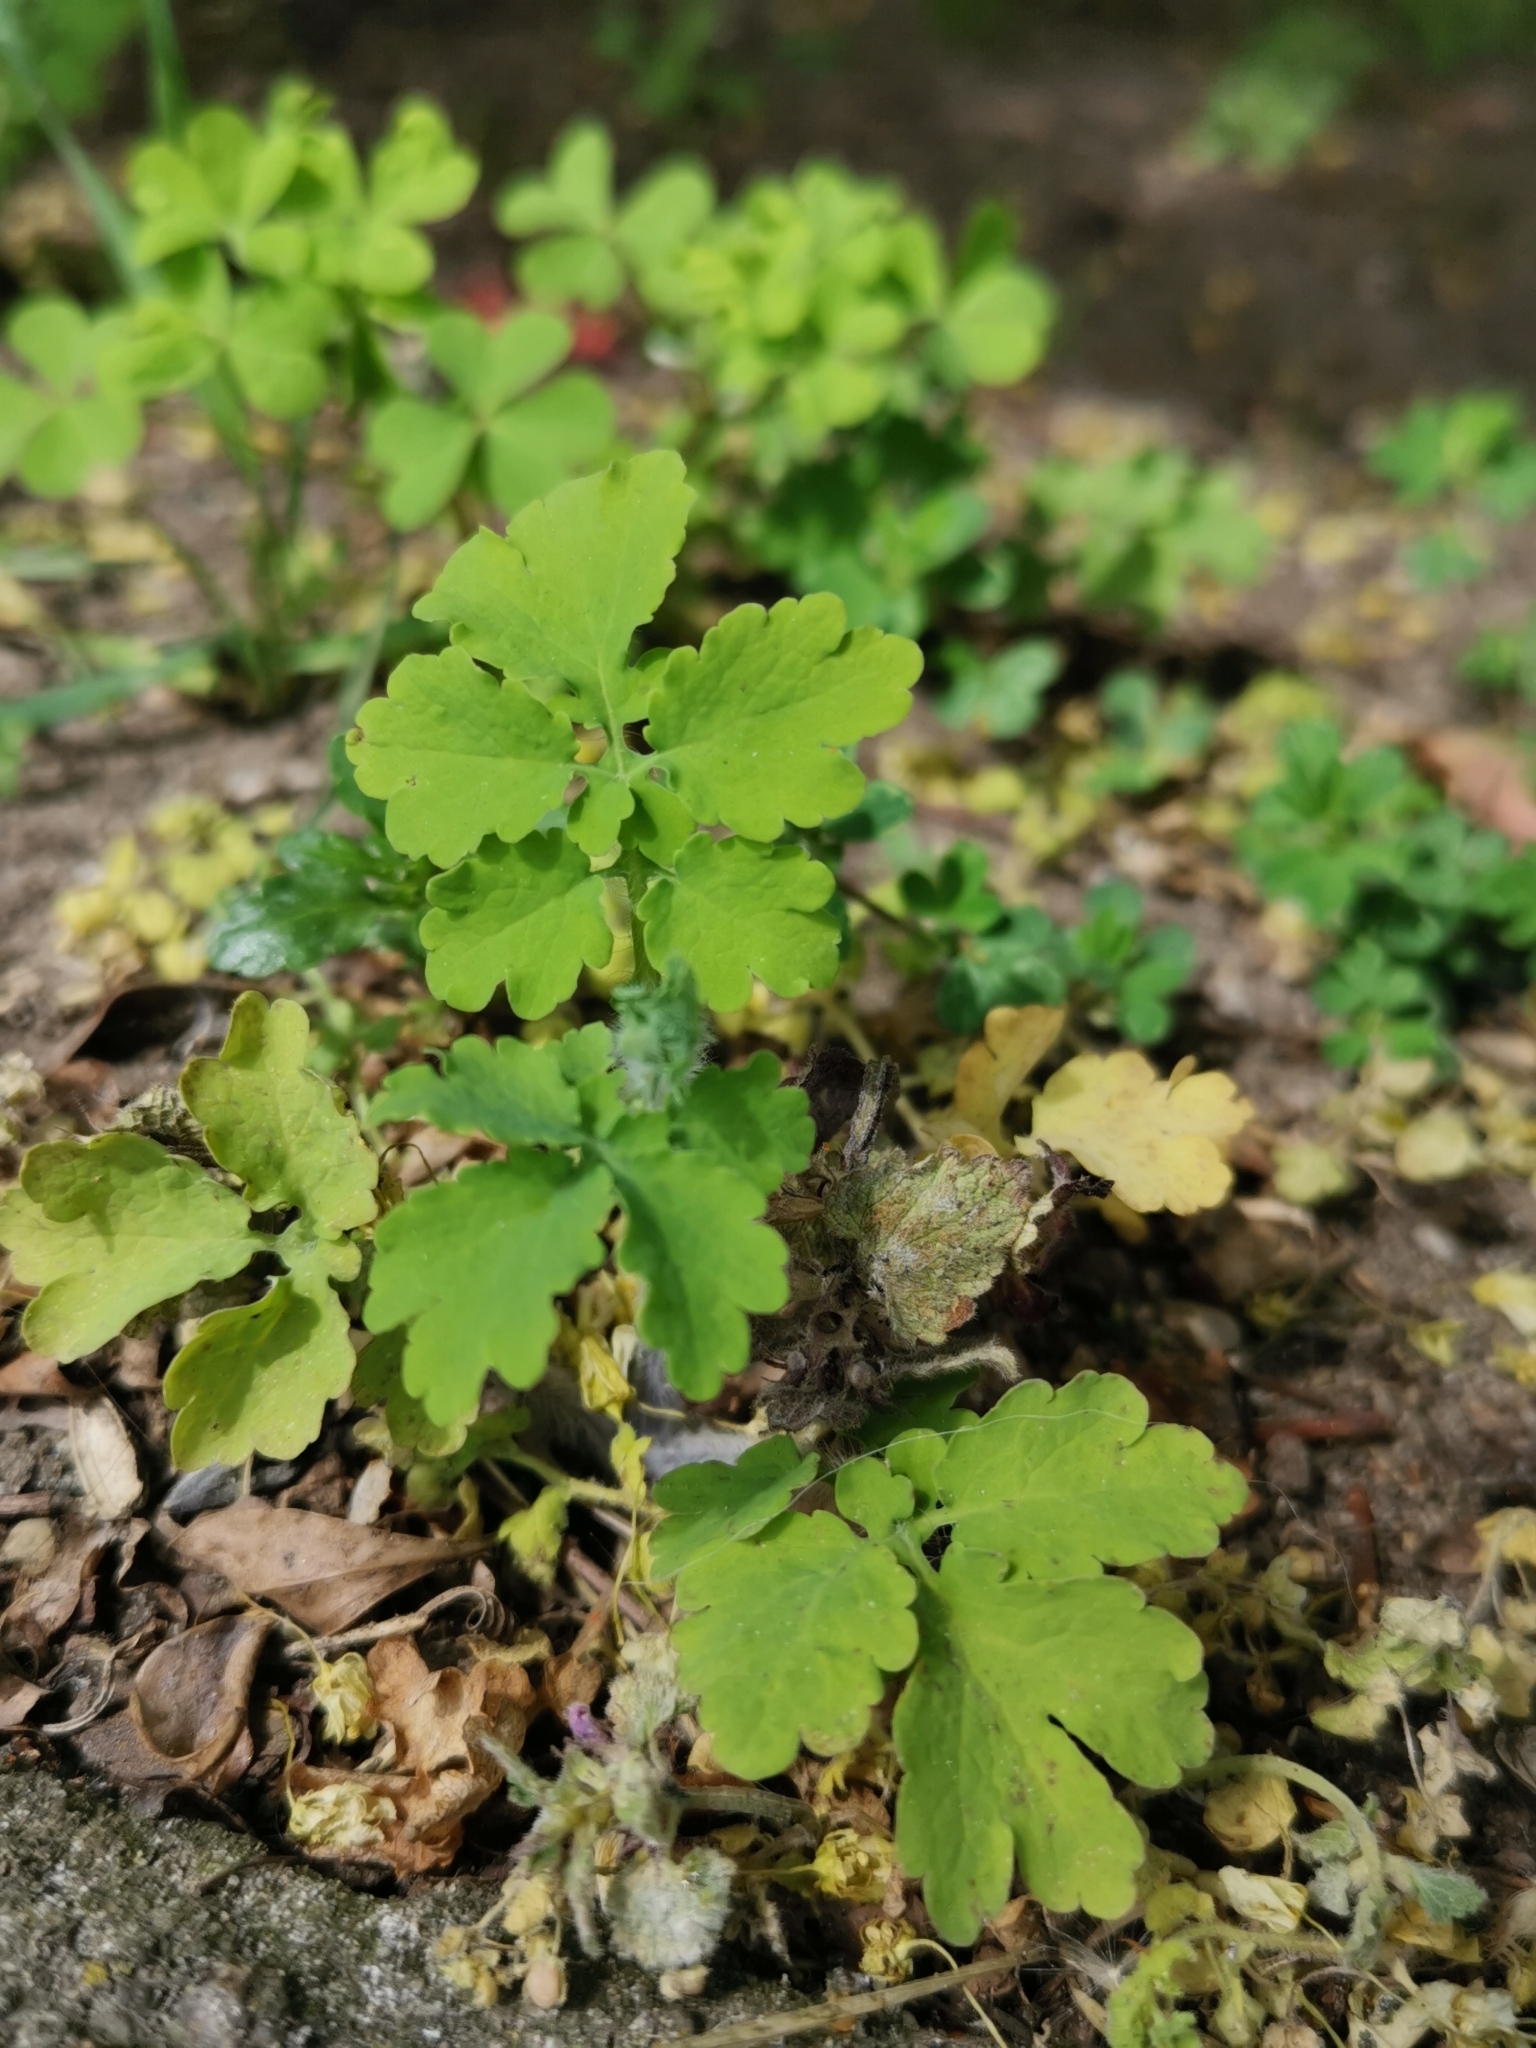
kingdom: Plantae
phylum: Tracheophyta
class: Magnoliopsida
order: Ranunculales
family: Papaveraceae
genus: Chelidonium
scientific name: Chelidonium majus
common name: Greater celandine
